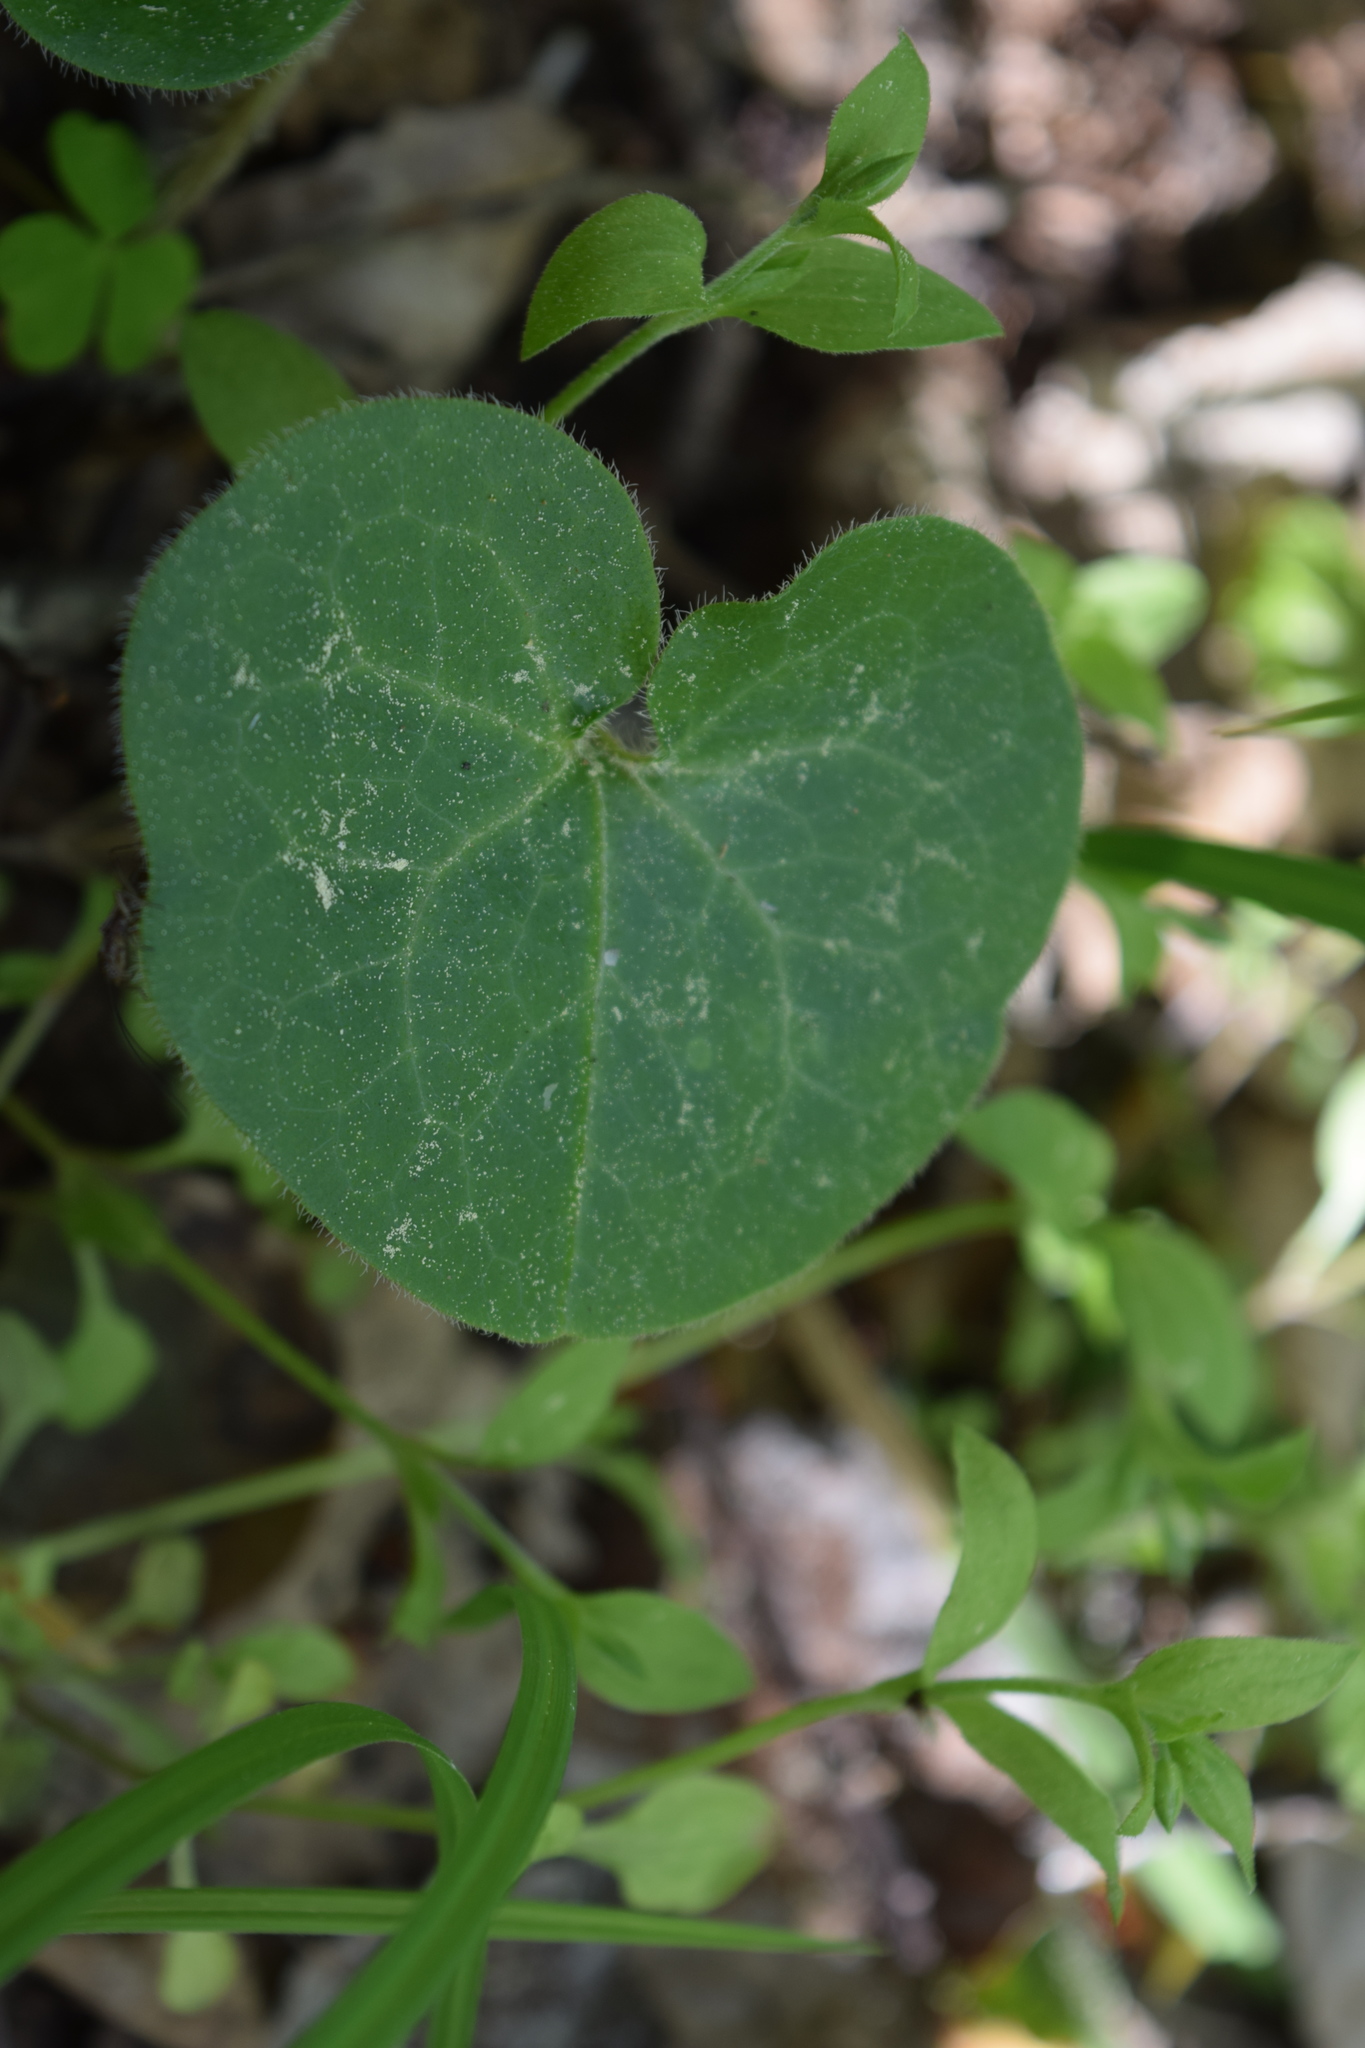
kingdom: Plantae
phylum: Tracheophyta
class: Magnoliopsida
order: Piperales
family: Aristolochiaceae
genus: Asarum
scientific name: Asarum europaeum
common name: Asarabacca
